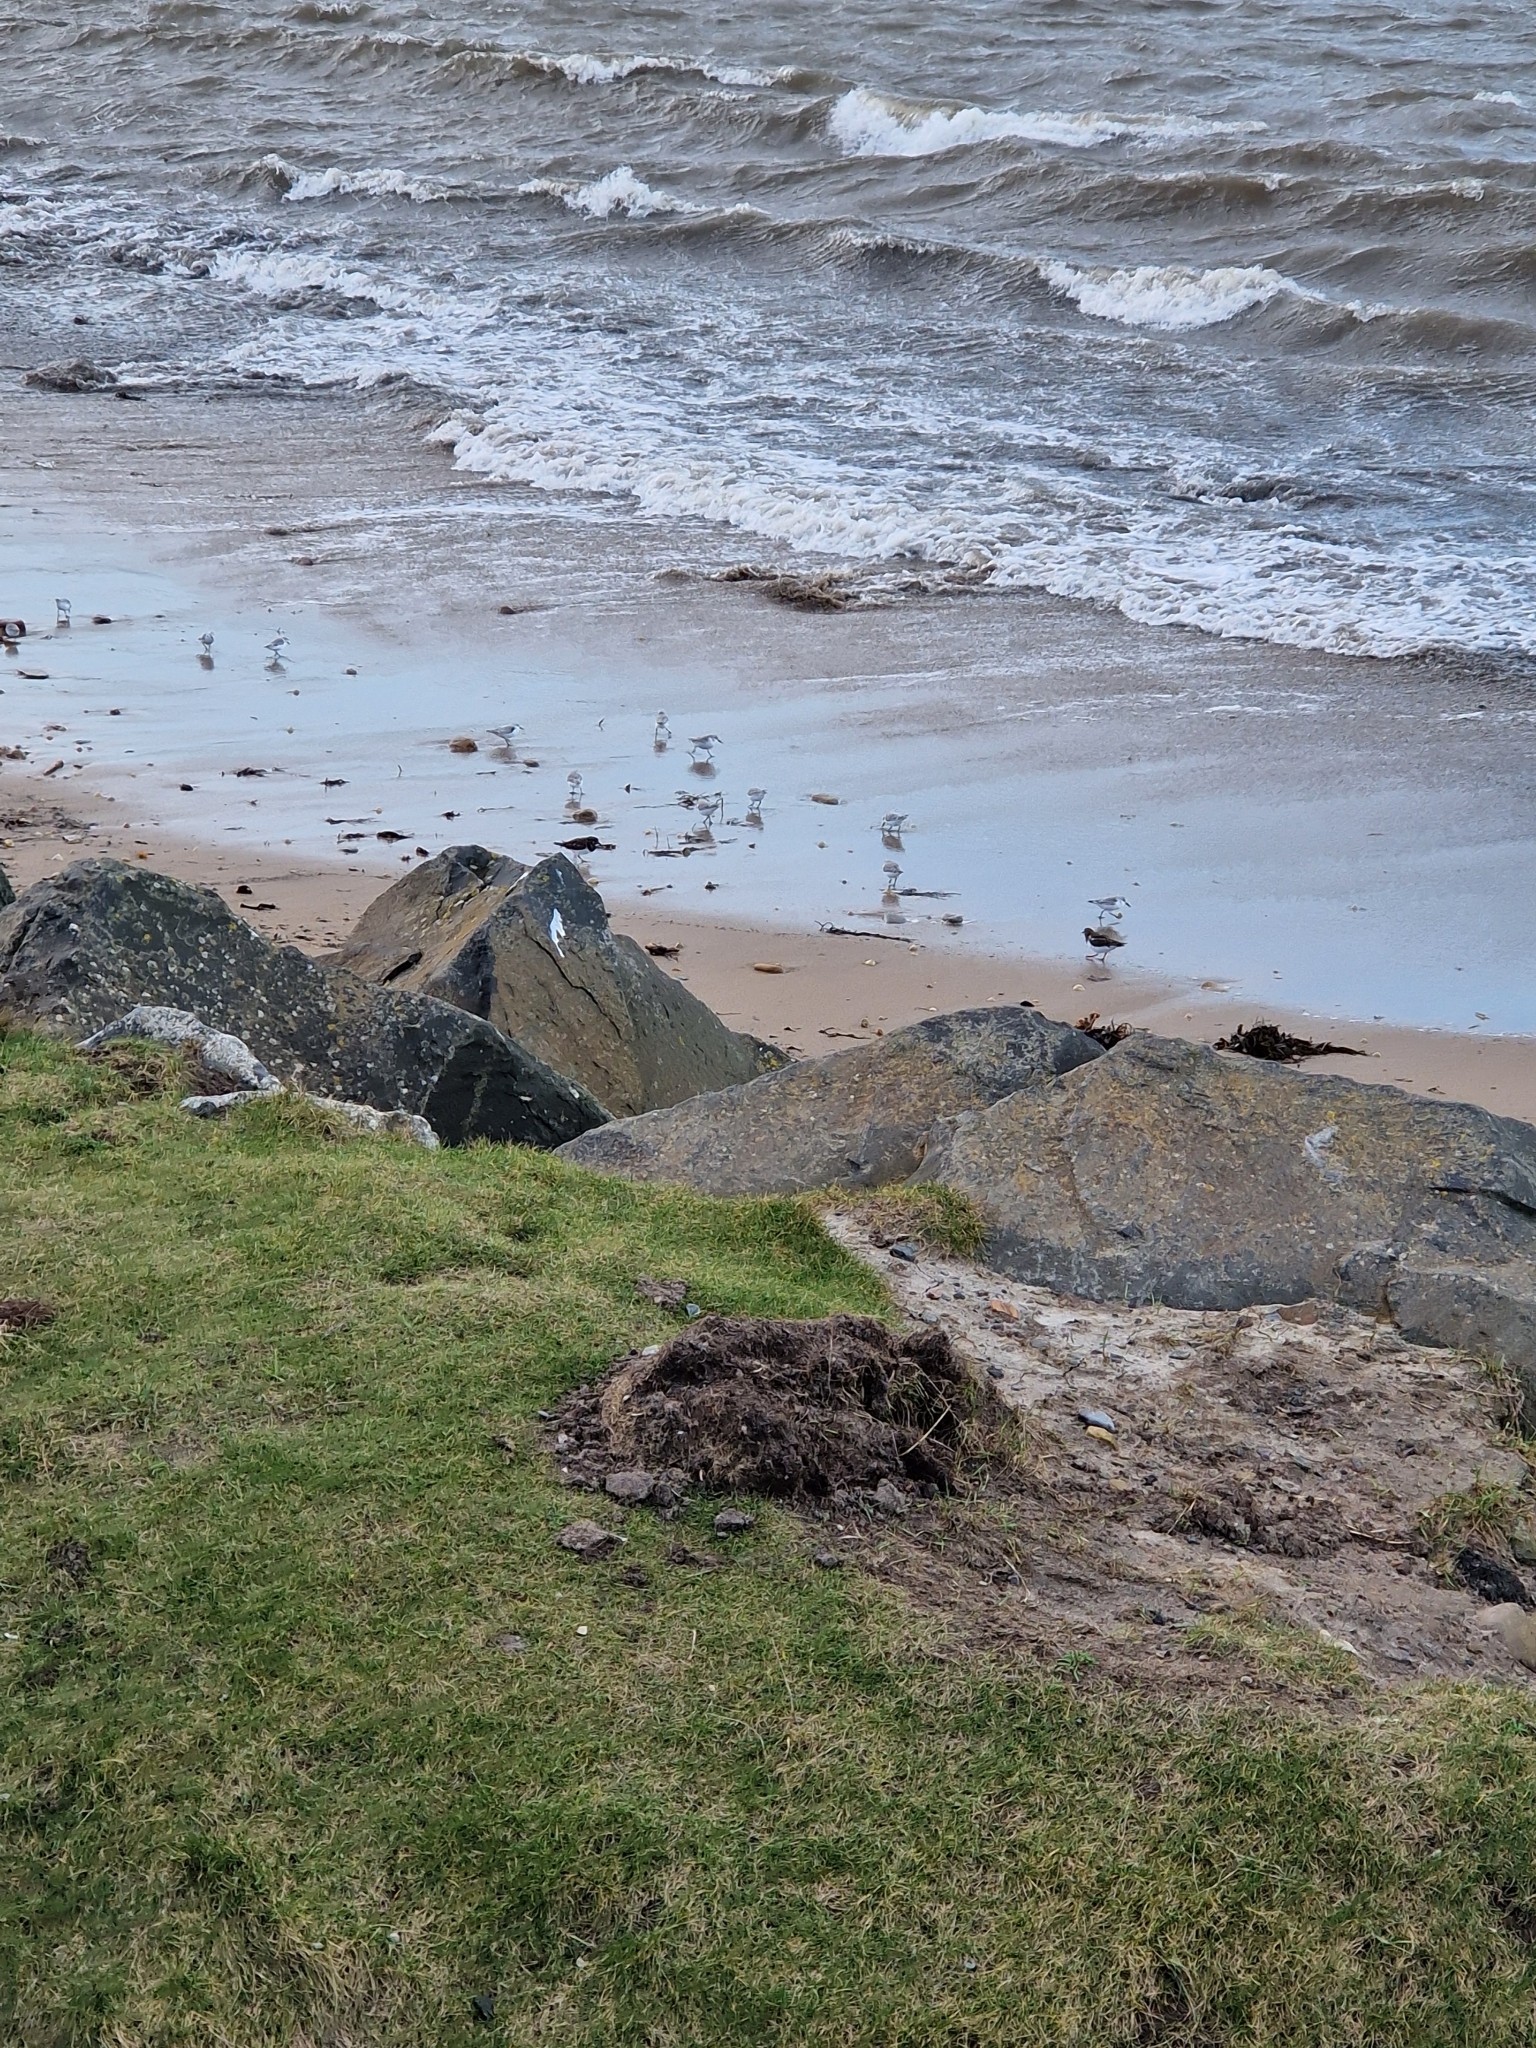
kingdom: Animalia
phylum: Chordata
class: Aves
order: Charadriiformes
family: Scolopacidae
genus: Calidris
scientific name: Calidris alba
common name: Sanderling
